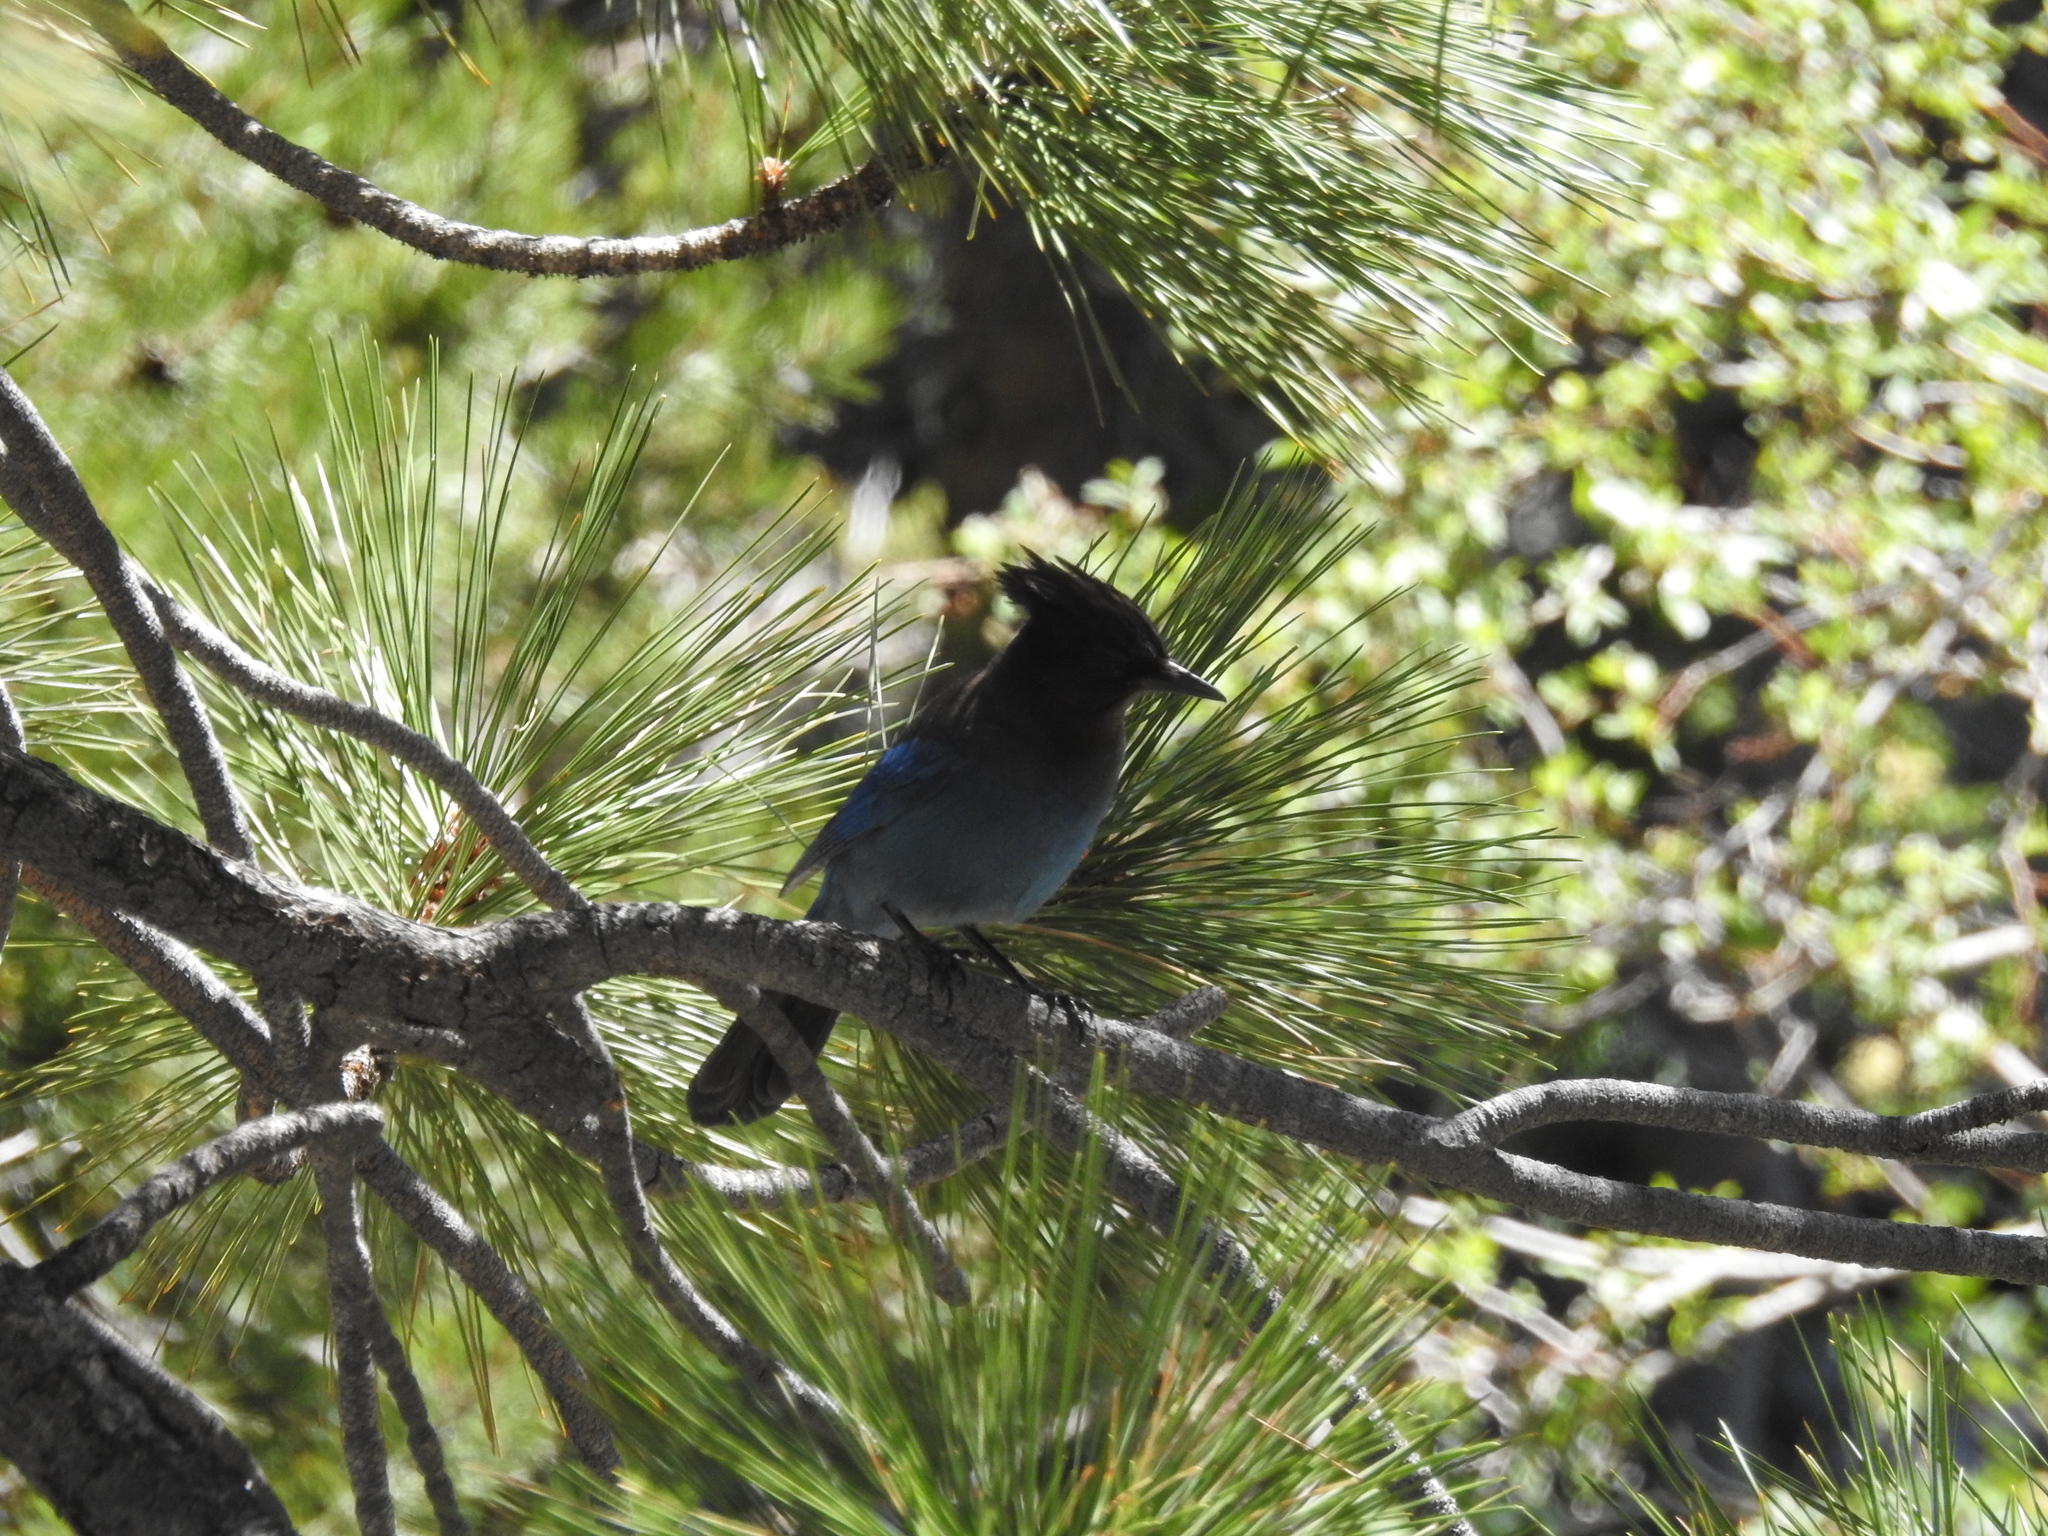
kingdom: Animalia
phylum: Chordata
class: Aves
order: Passeriformes
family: Corvidae
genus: Cyanocitta
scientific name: Cyanocitta stelleri
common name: Steller's jay
